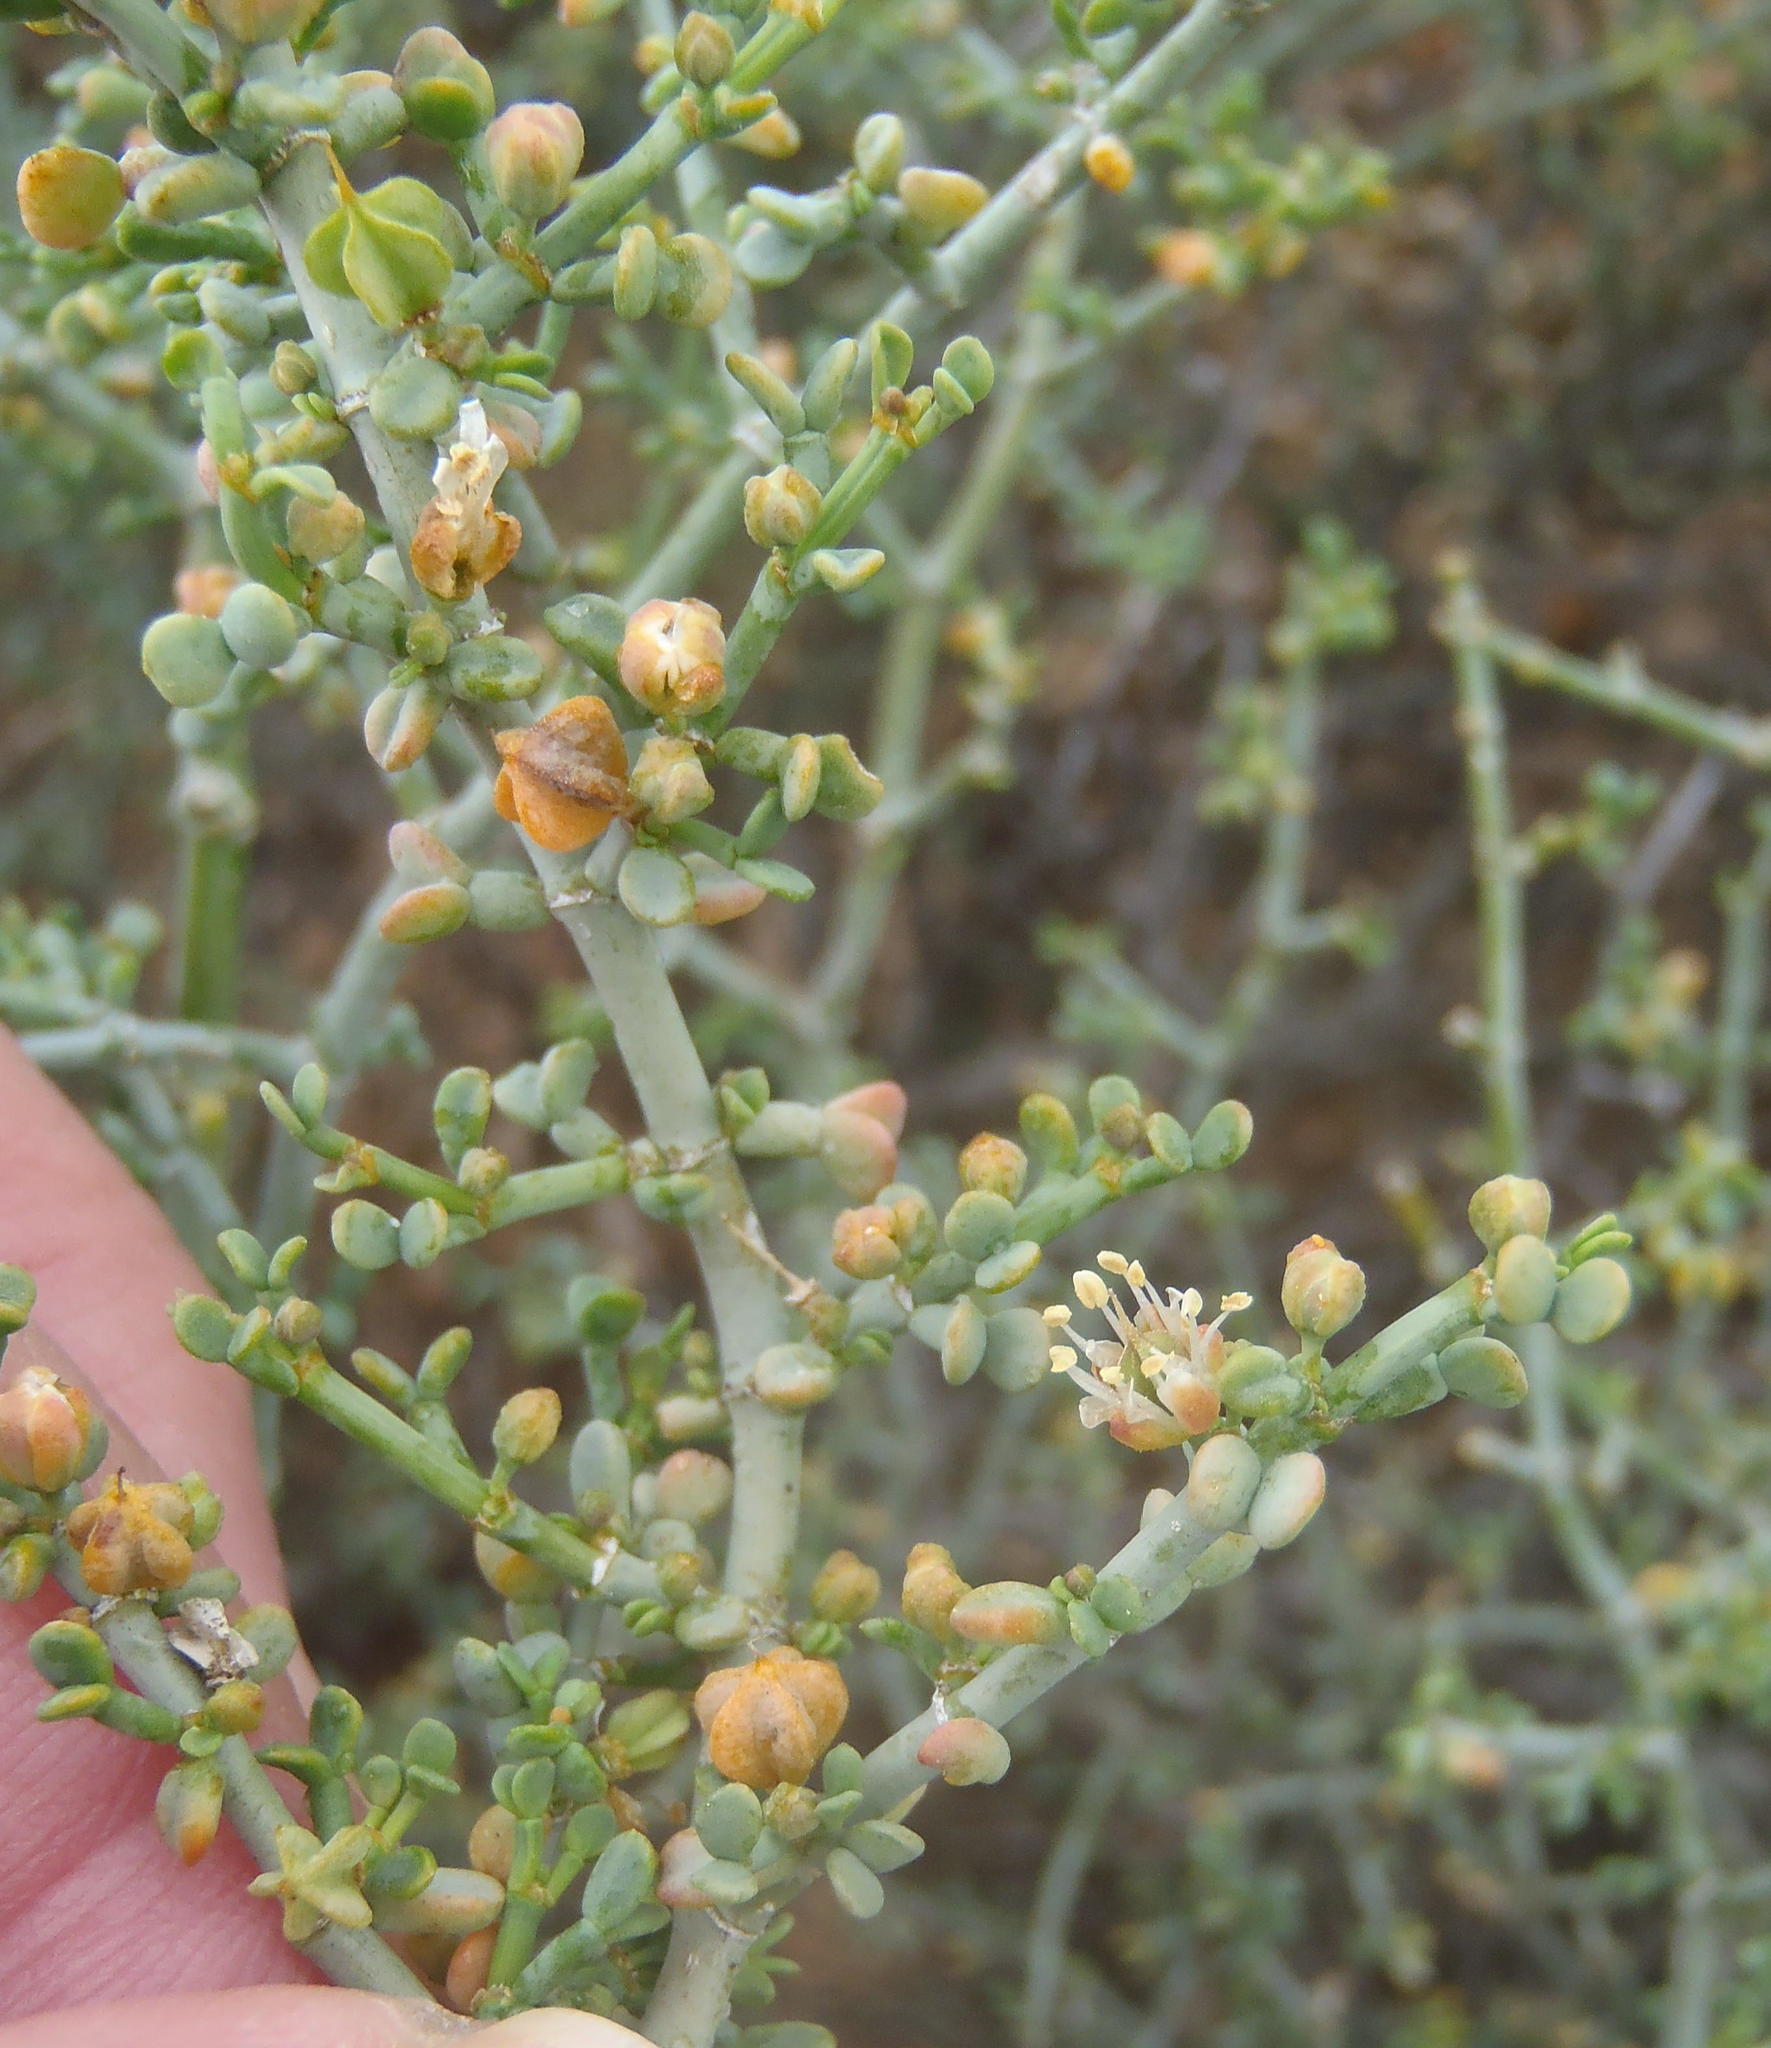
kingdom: Plantae
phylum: Tracheophyta
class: Magnoliopsida
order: Zygophyllales
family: Zygophyllaceae
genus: Tetraena
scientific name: Tetraena chrysopteros
